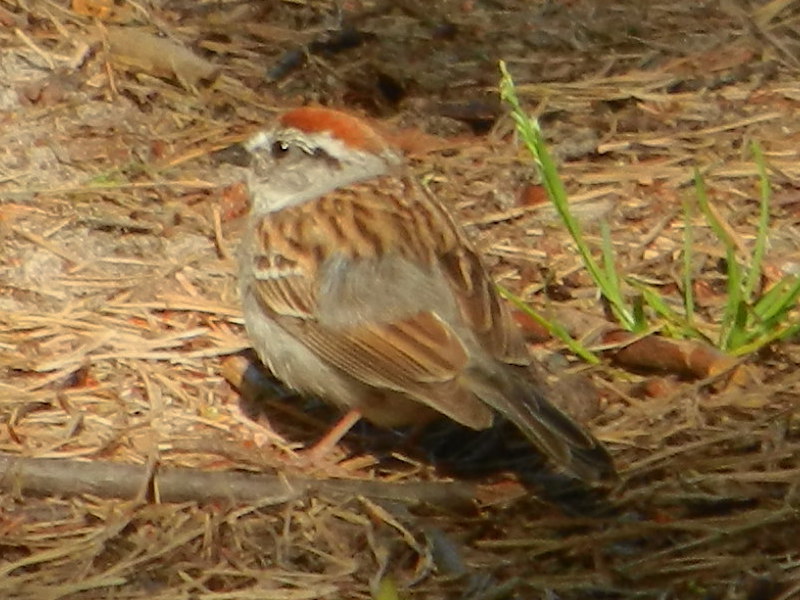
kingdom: Animalia
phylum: Chordata
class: Aves
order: Passeriformes
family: Passerellidae
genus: Spizella
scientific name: Spizella passerina
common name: Chipping sparrow
